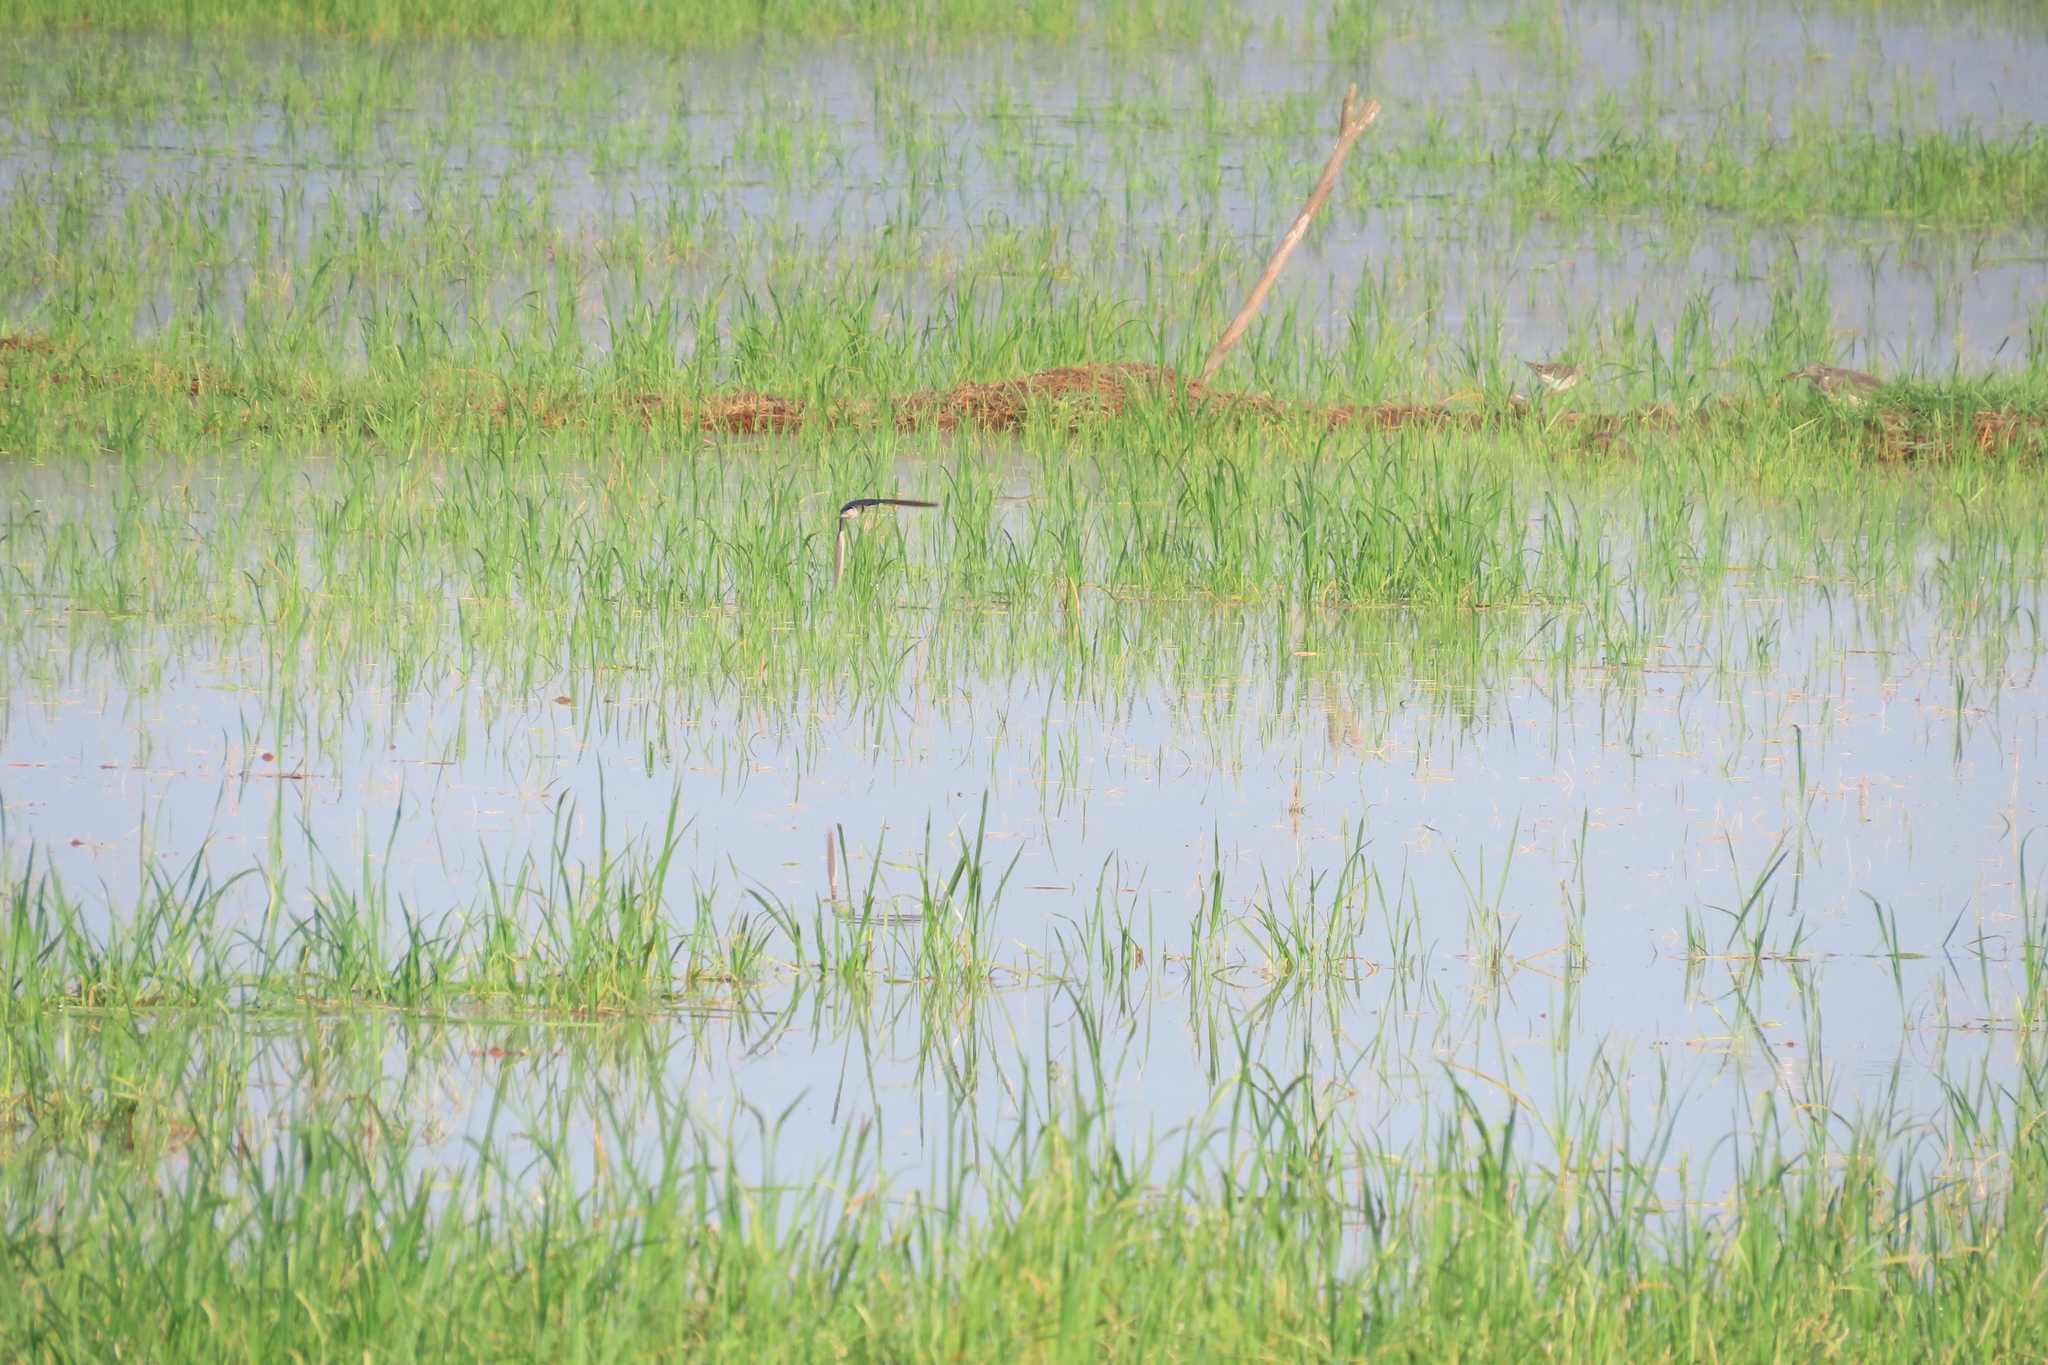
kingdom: Animalia
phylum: Chordata
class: Aves
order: Passeriformes
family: Hirundinidae
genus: Hirundo
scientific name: Hirundo rustica
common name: Barn swallow
